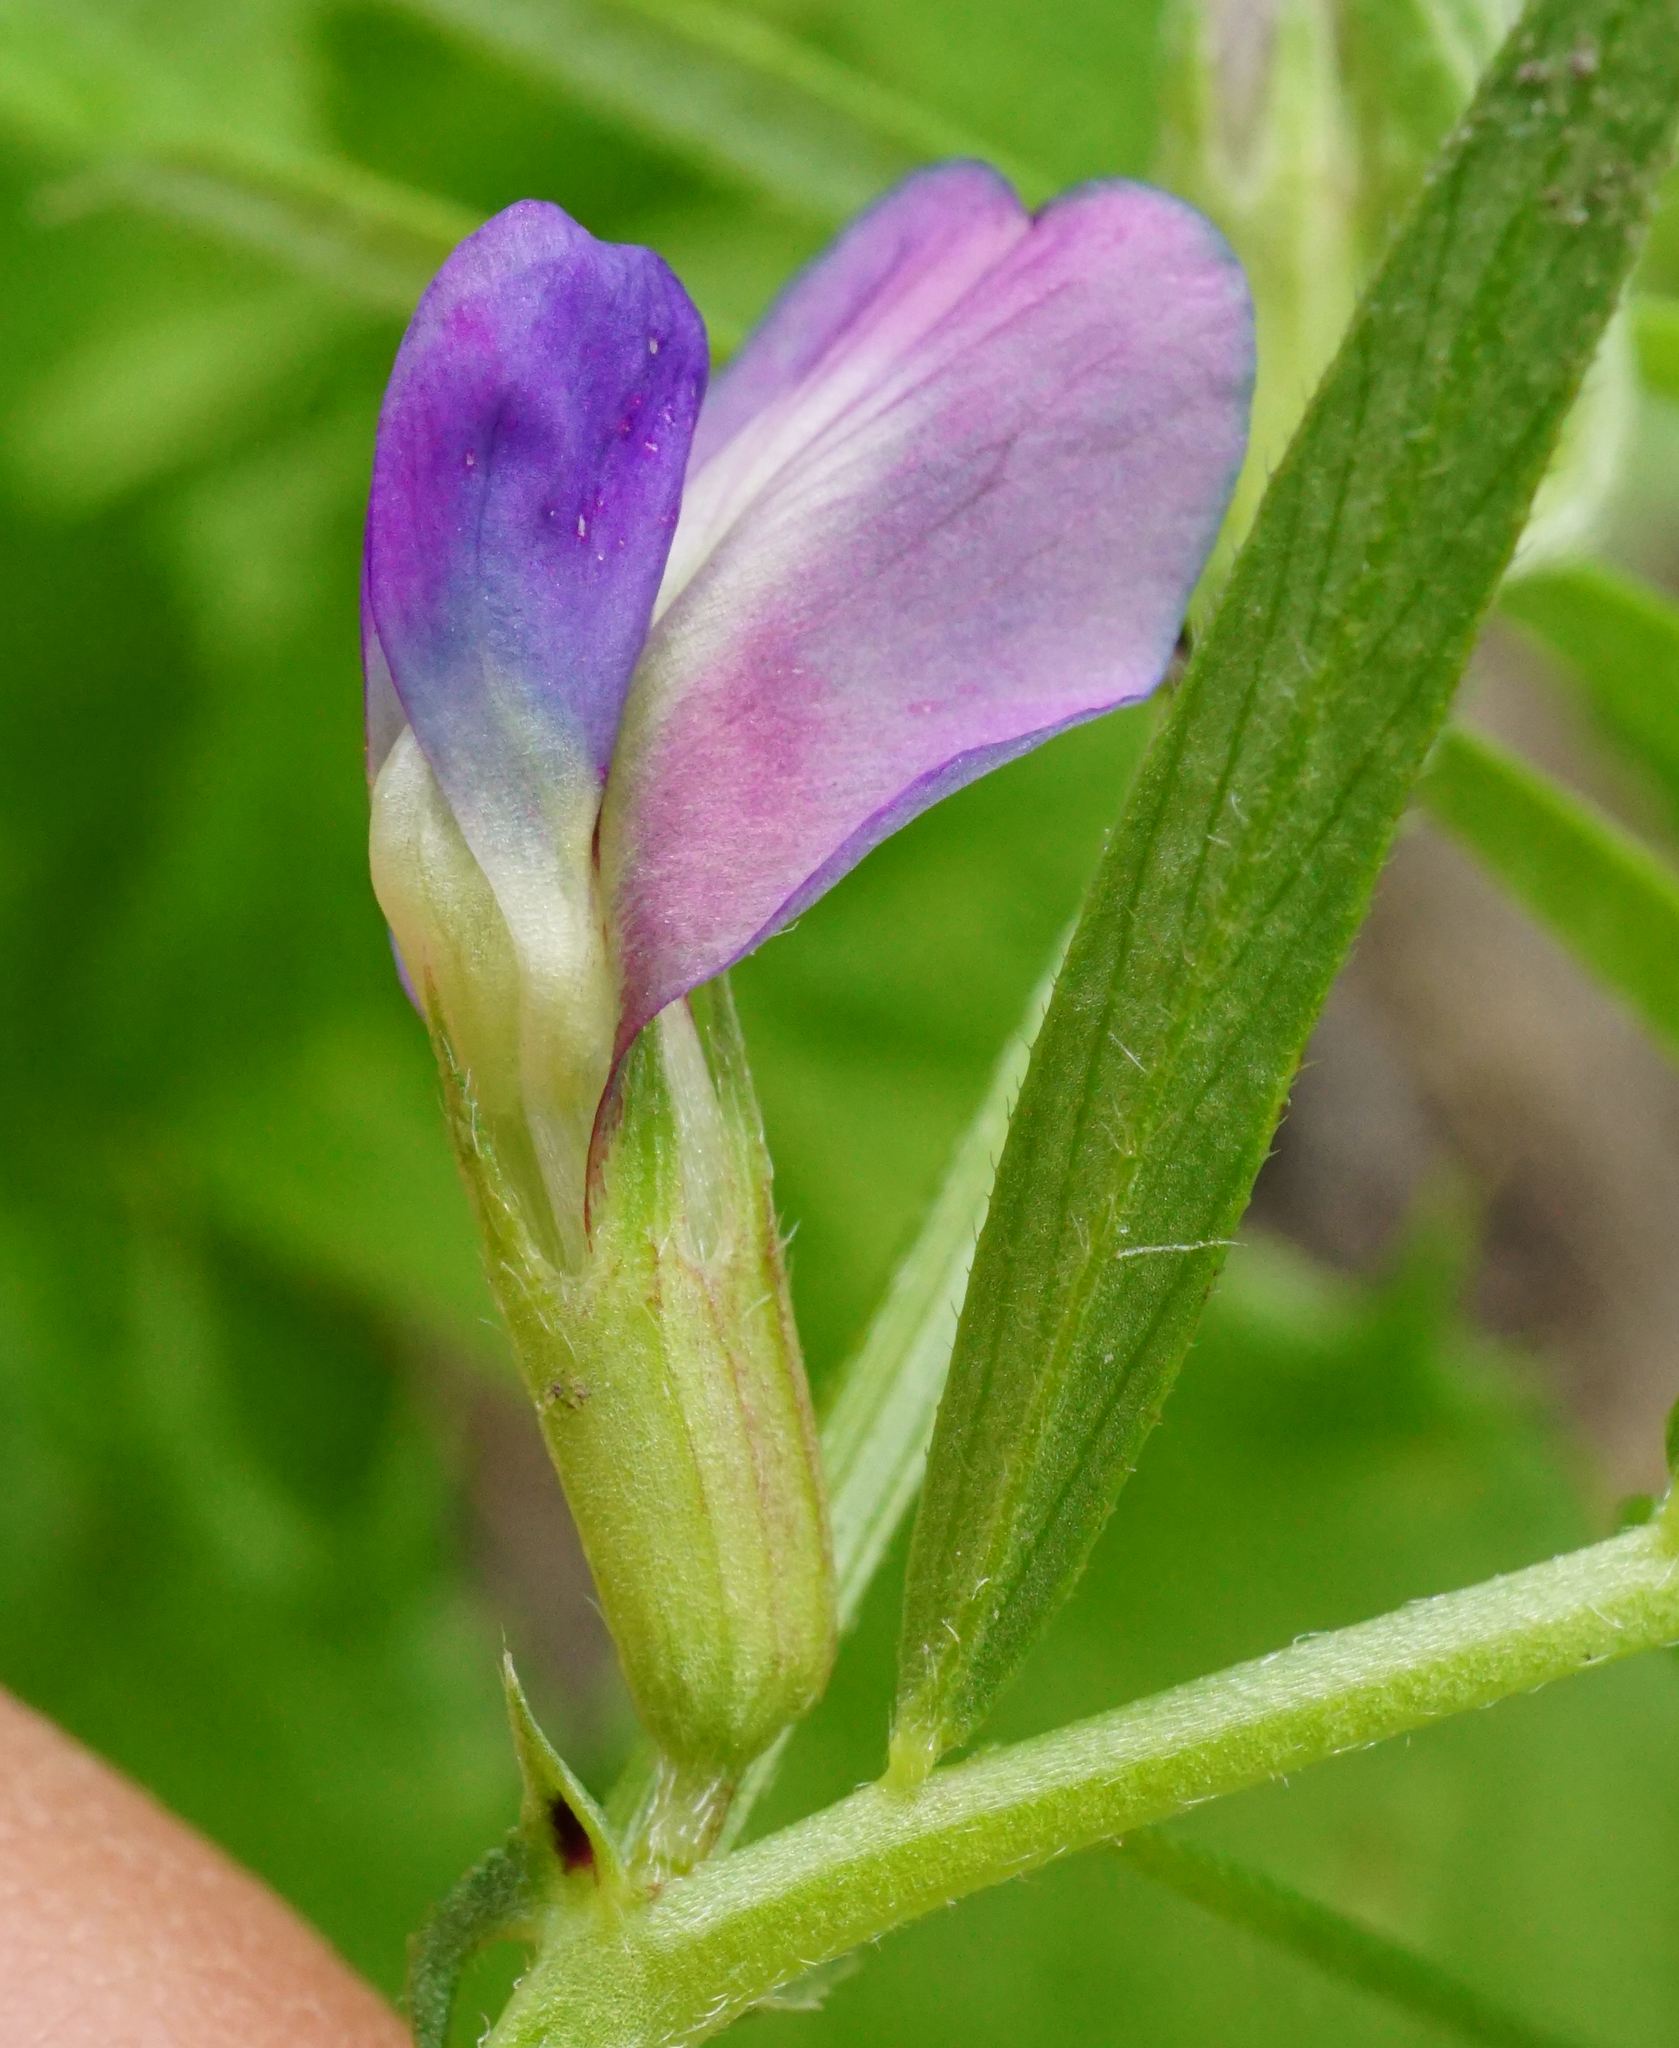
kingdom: Plantae
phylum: Tracheophyta
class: Magnoliopsida
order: Fabales
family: Fabaceae
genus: Vicia
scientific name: Vicia sativa
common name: Garden vetch
